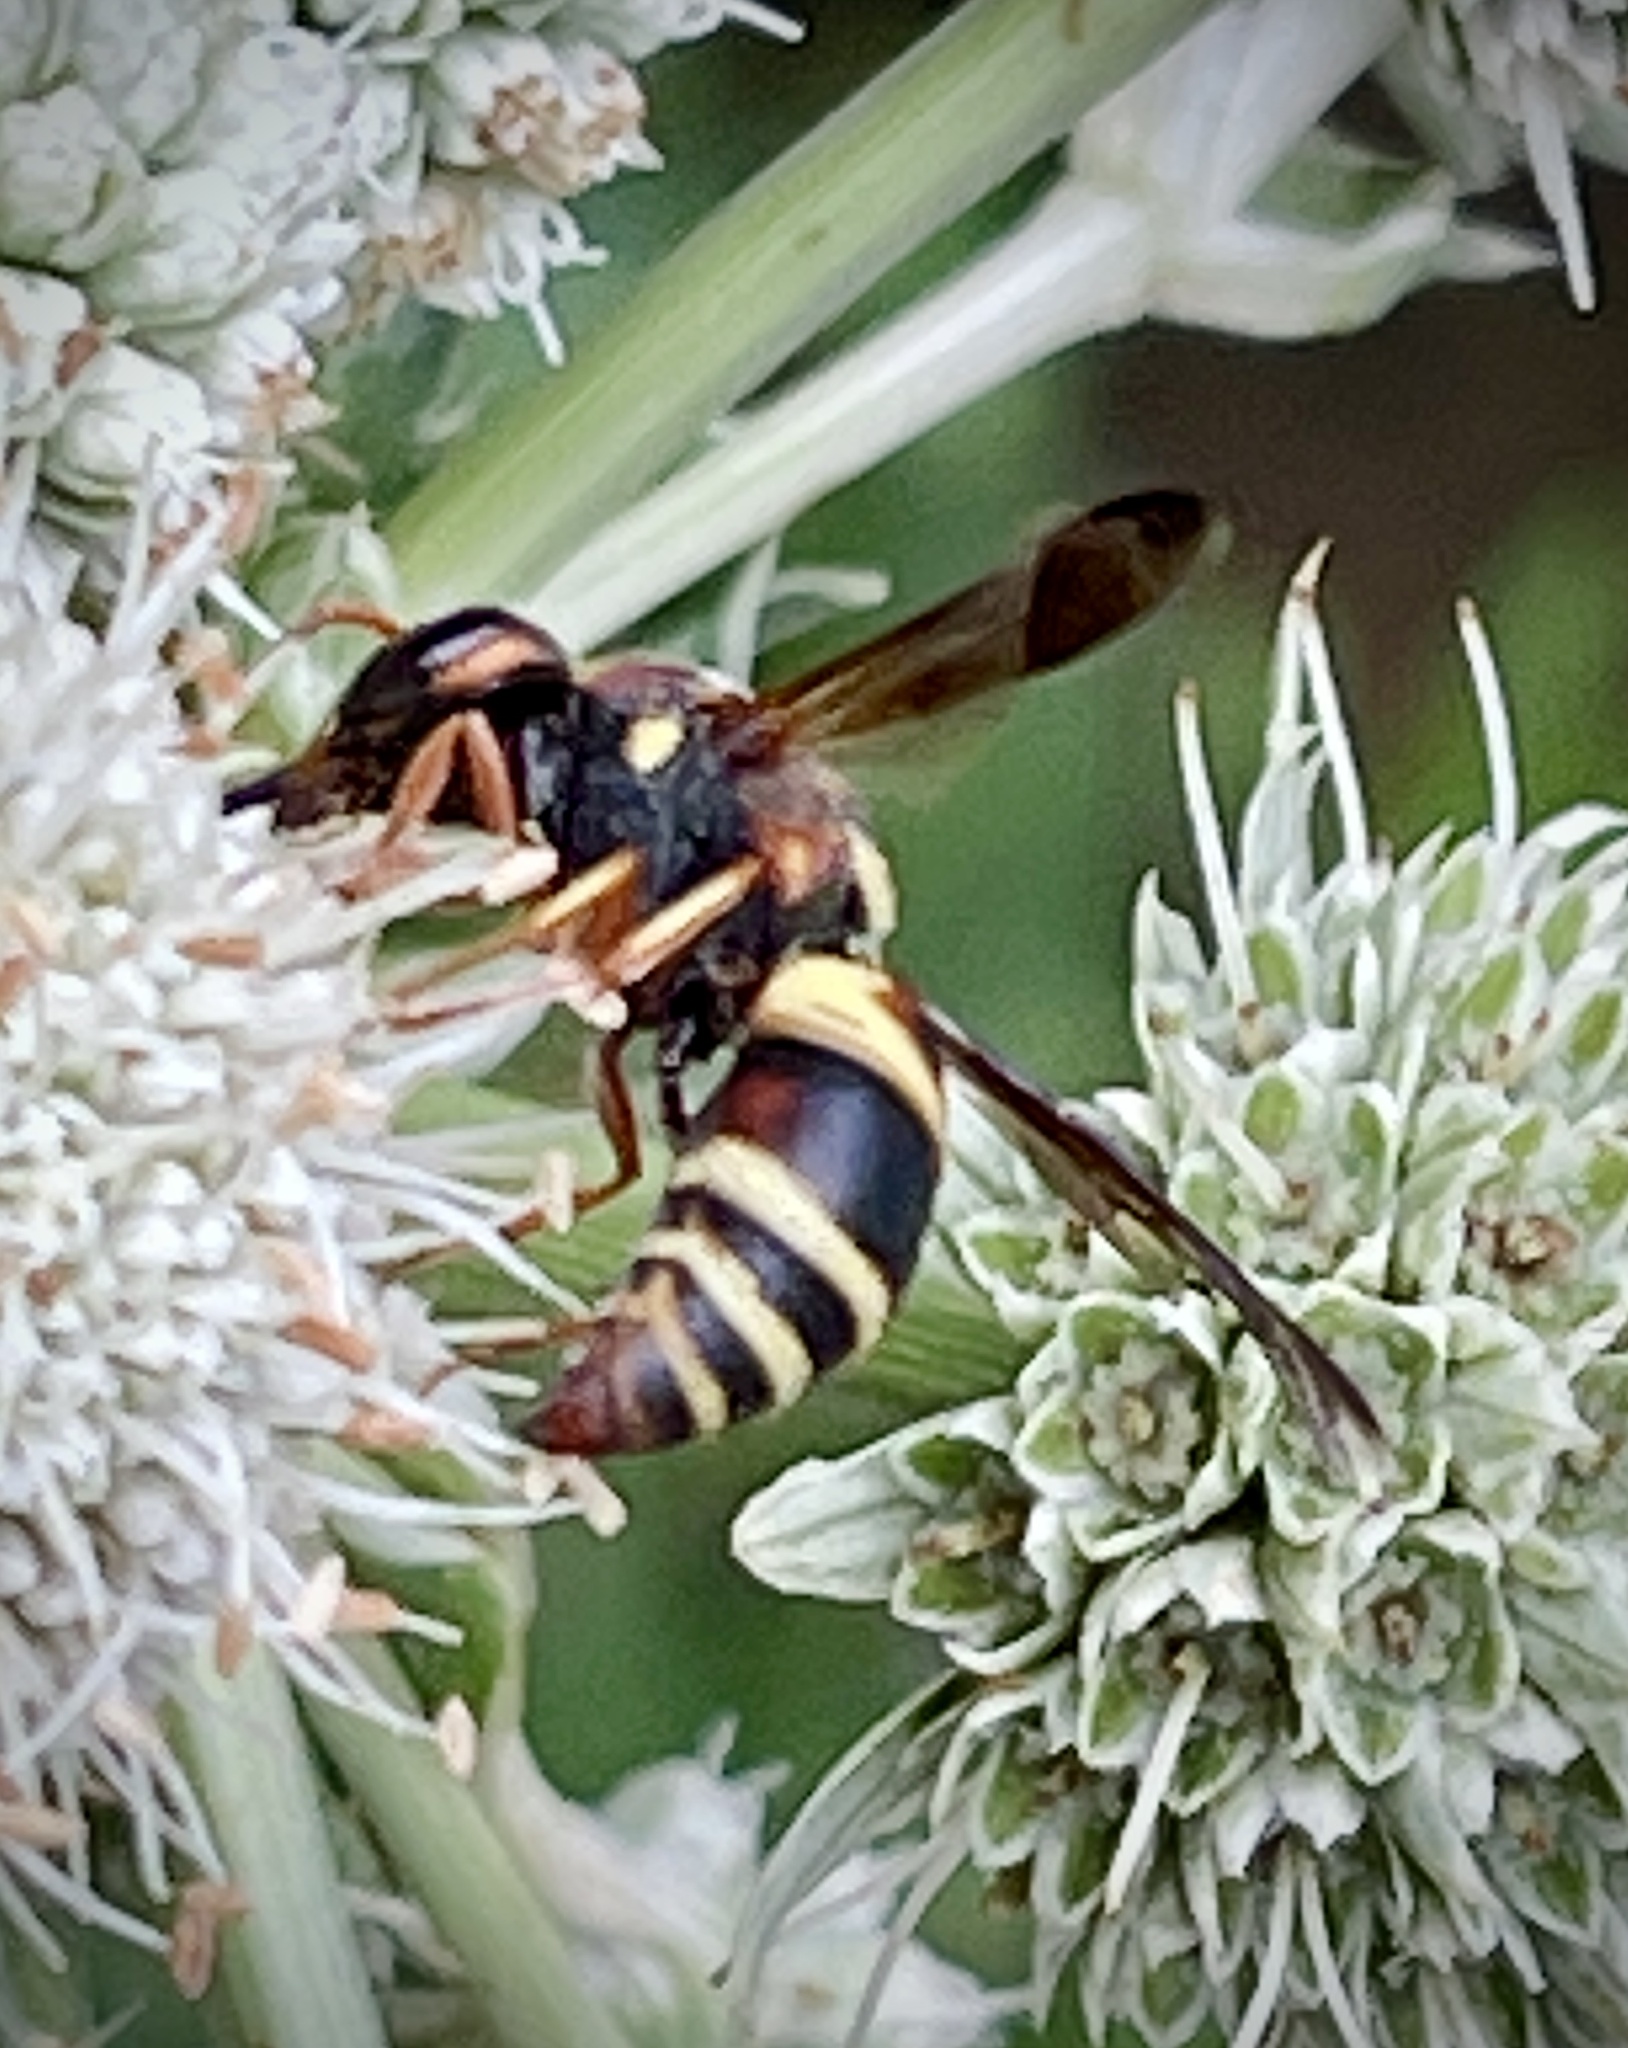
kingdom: Animalia
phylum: Arthropoda
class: Insecta
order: Hymenoptera
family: Eumenidae
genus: Euodynerus
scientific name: Euodynerus hidalgo
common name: Wasp
